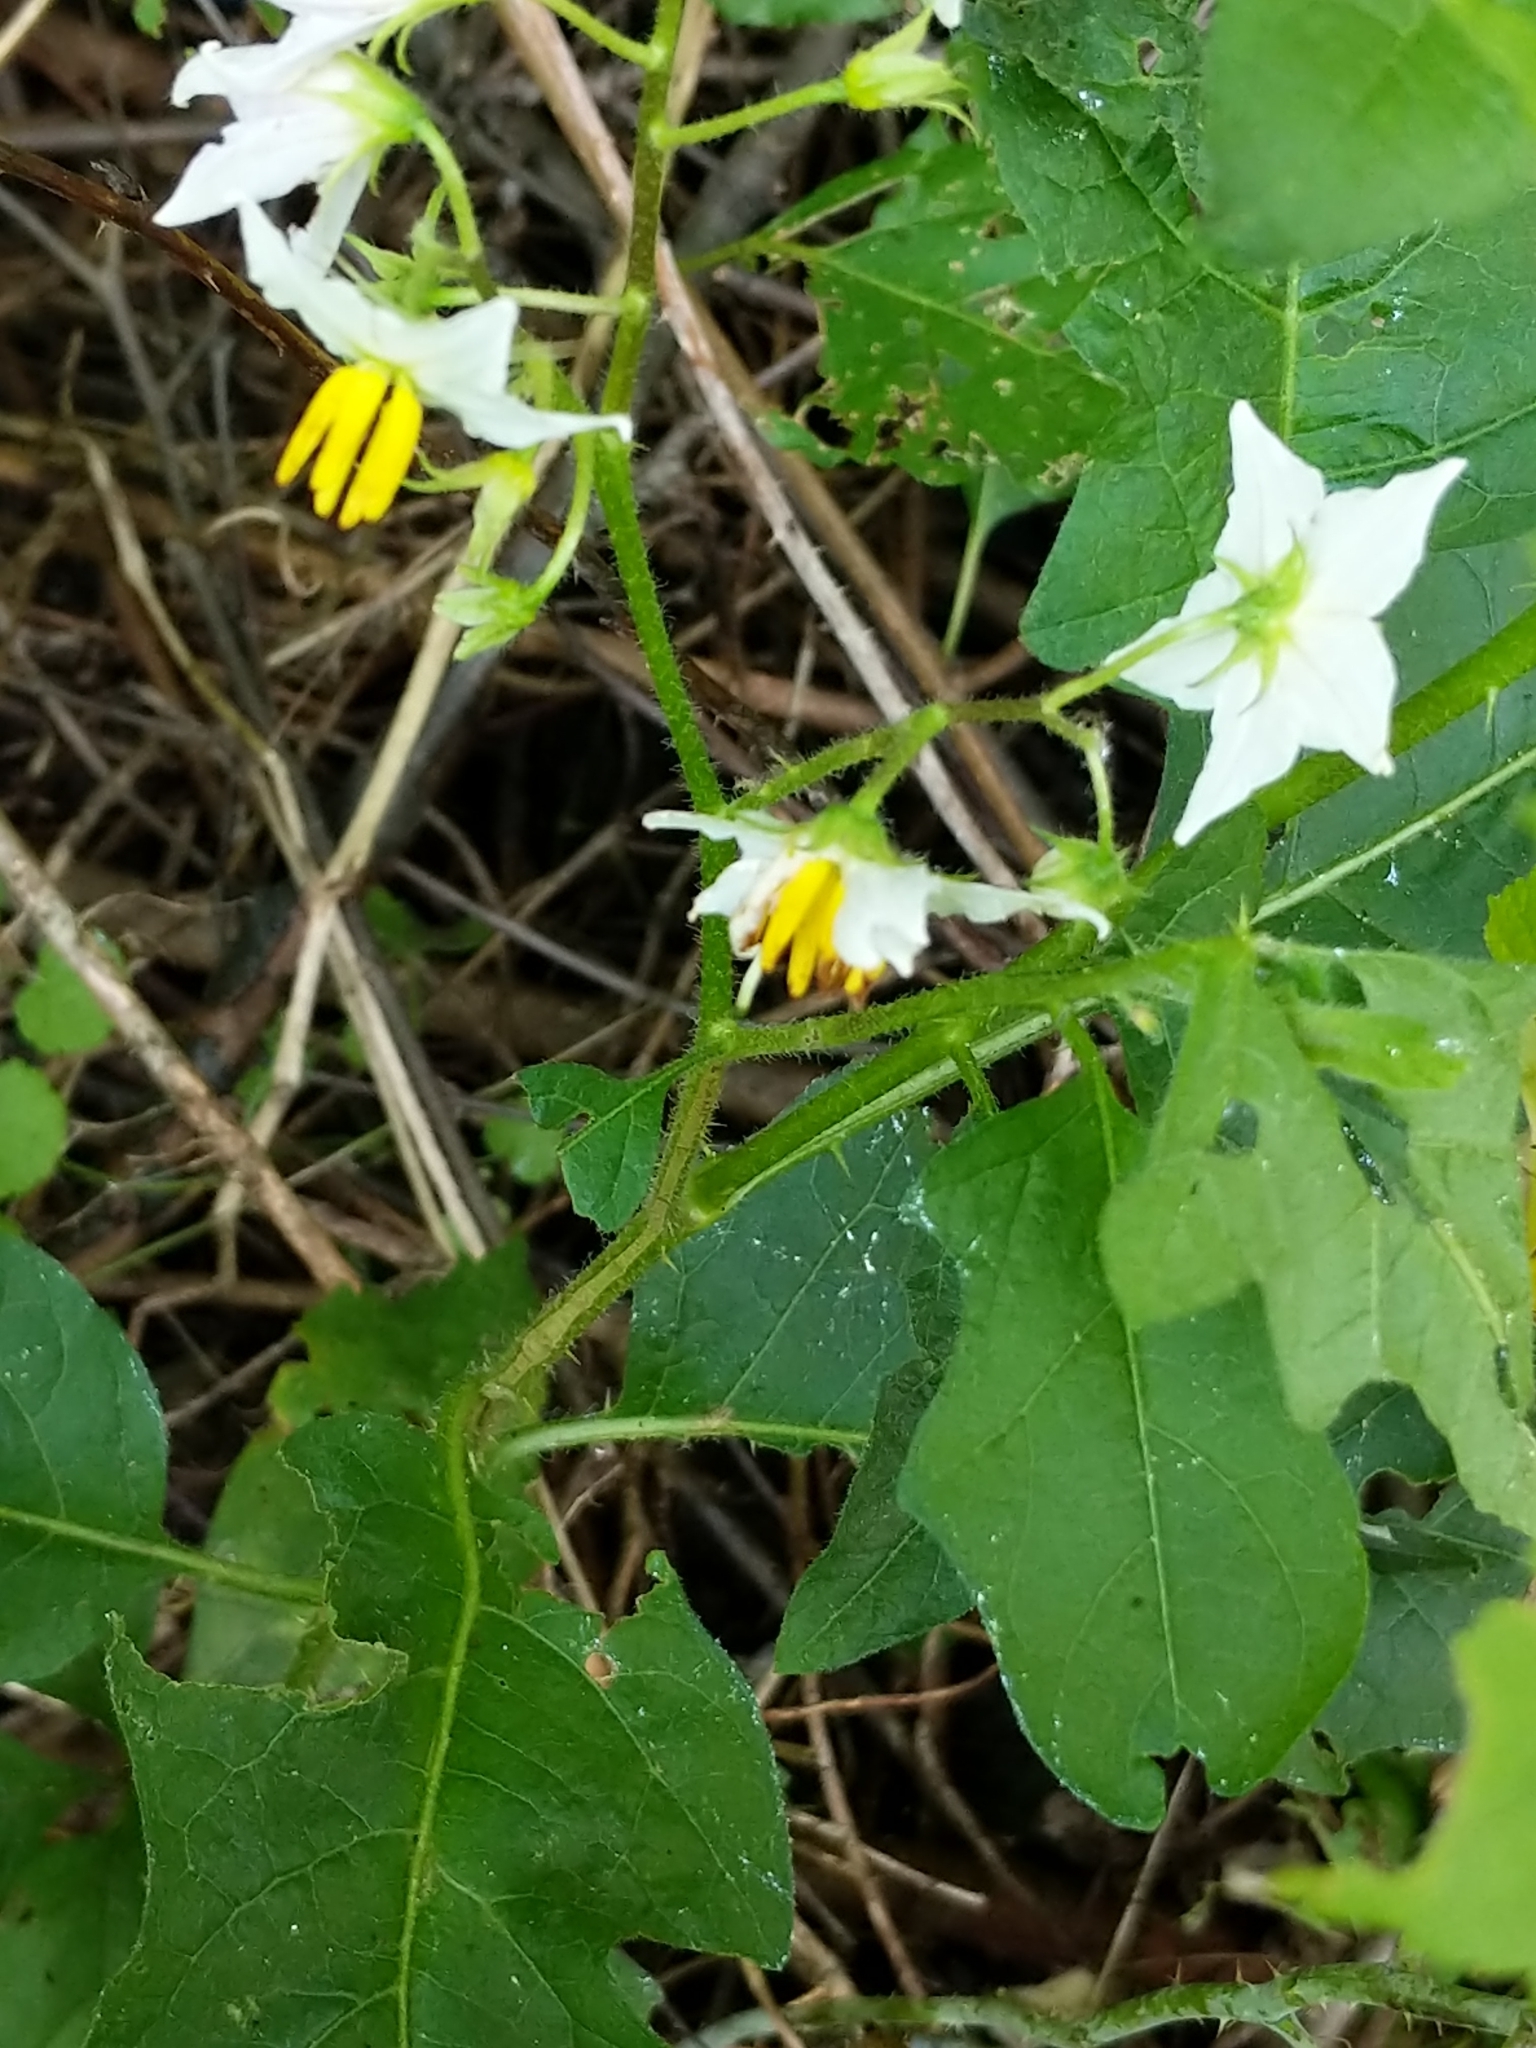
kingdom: Plantae
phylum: Tracheophyta
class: Magnoliopsida
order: Solanales
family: Solanaceae
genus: Solanum
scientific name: Solanum carolinense
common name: Horse-nettle
